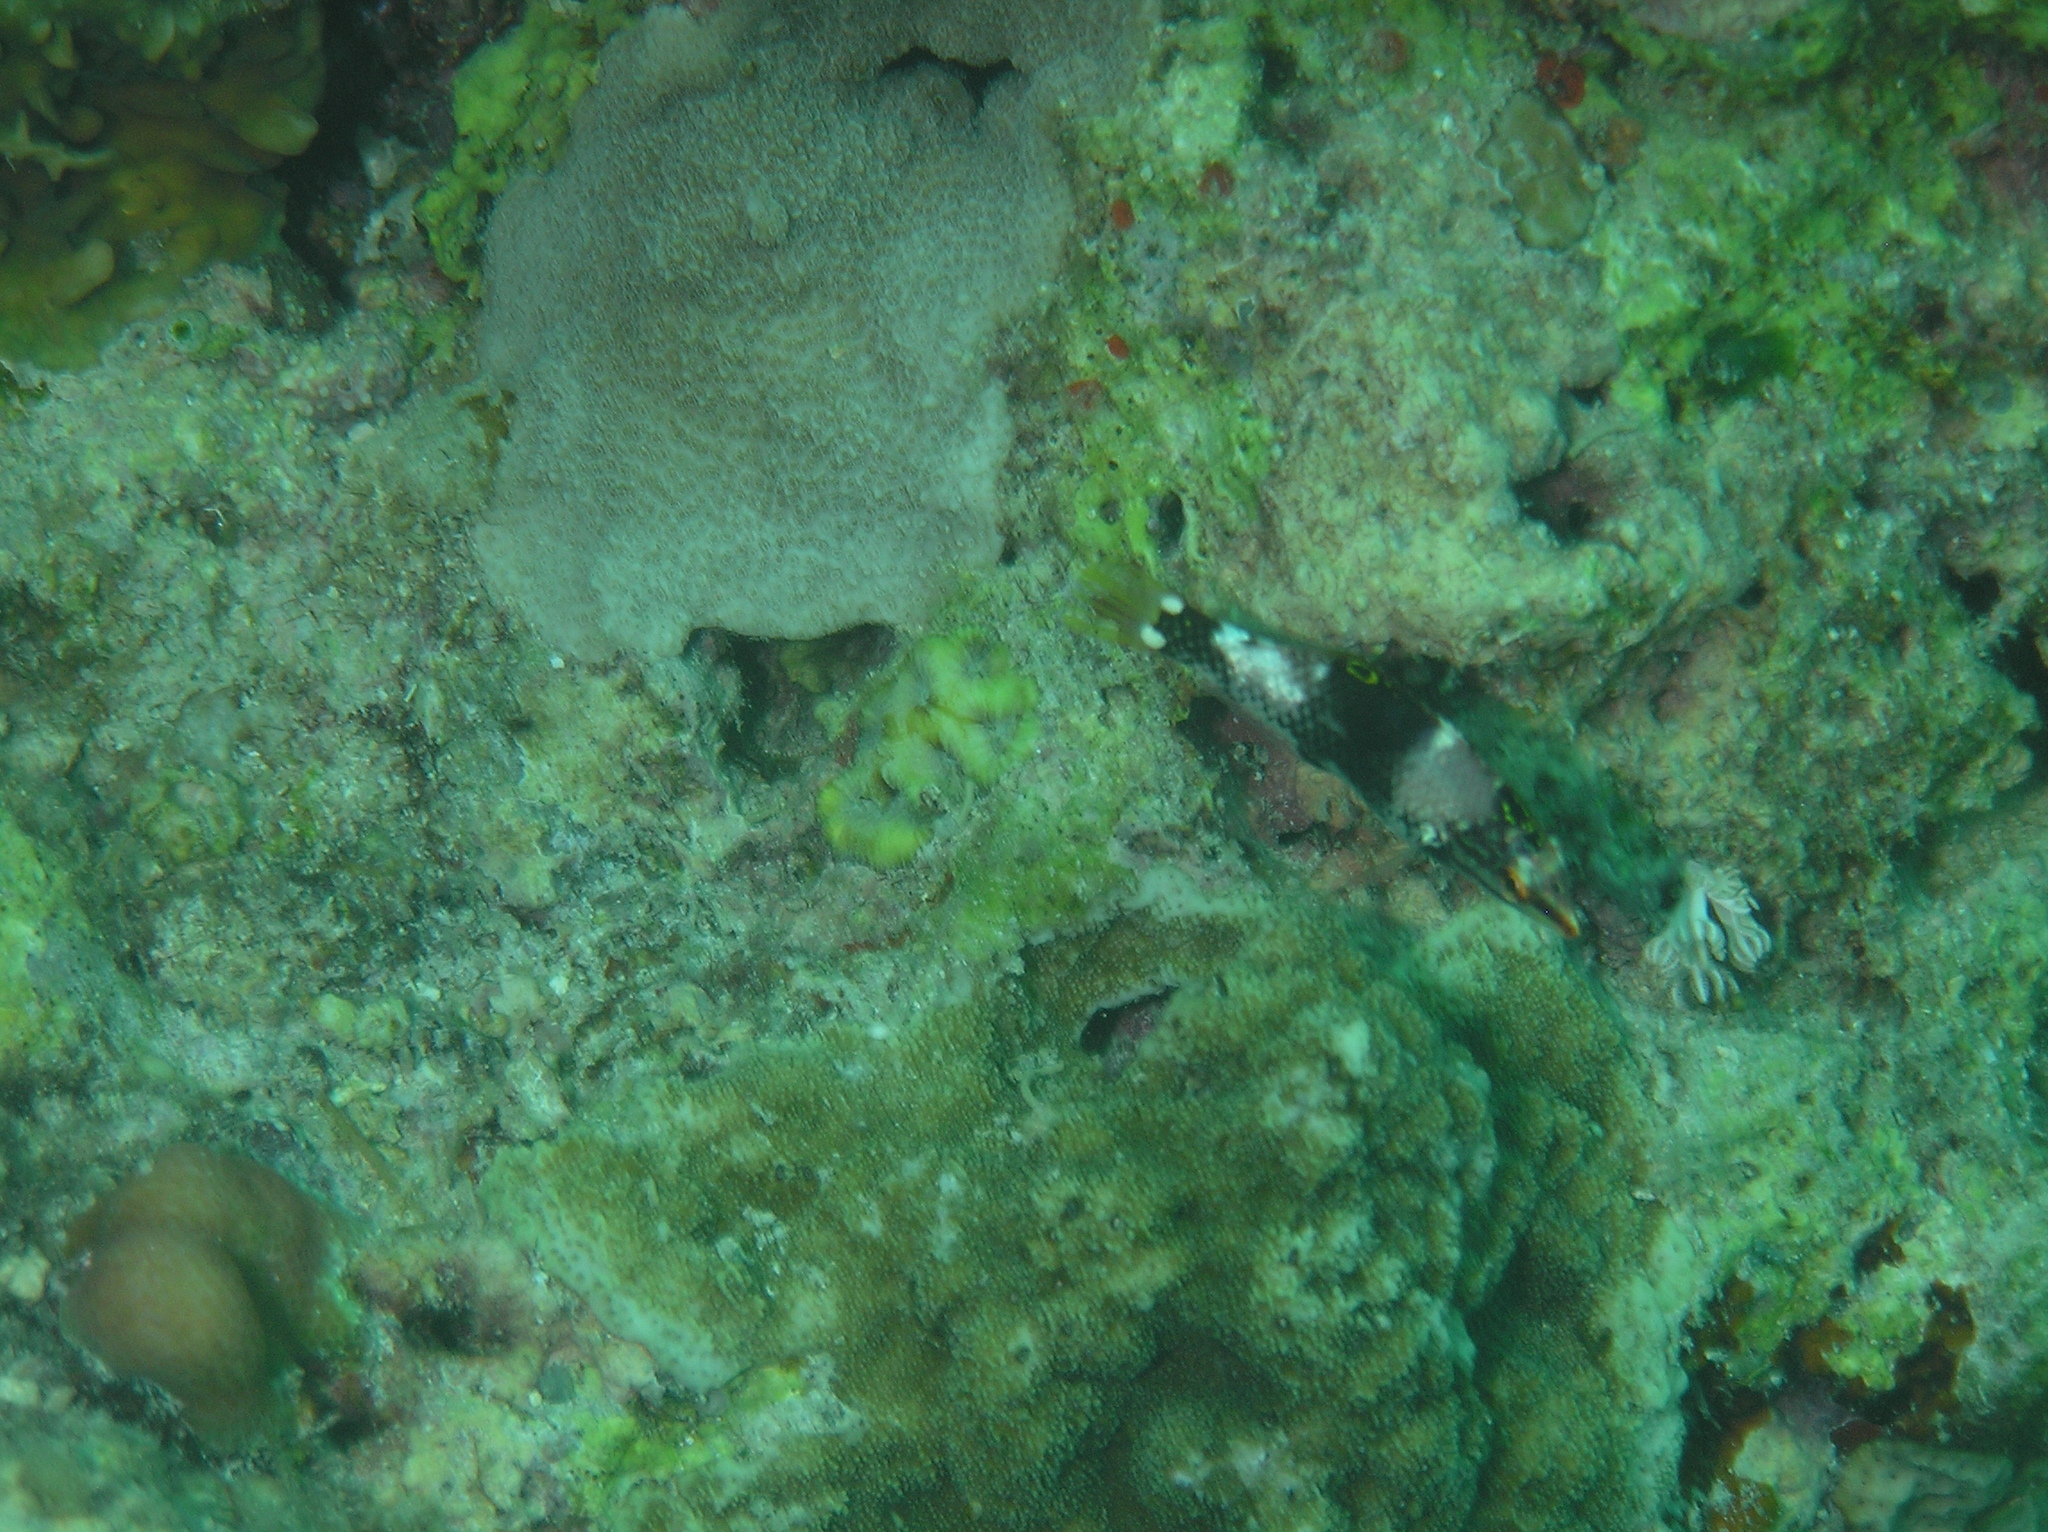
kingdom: Animalia
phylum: Chordata
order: Perciformes
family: Labridae
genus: Halichoeres
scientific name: Halichoeres hortulanus
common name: Checkerboard wrasse
